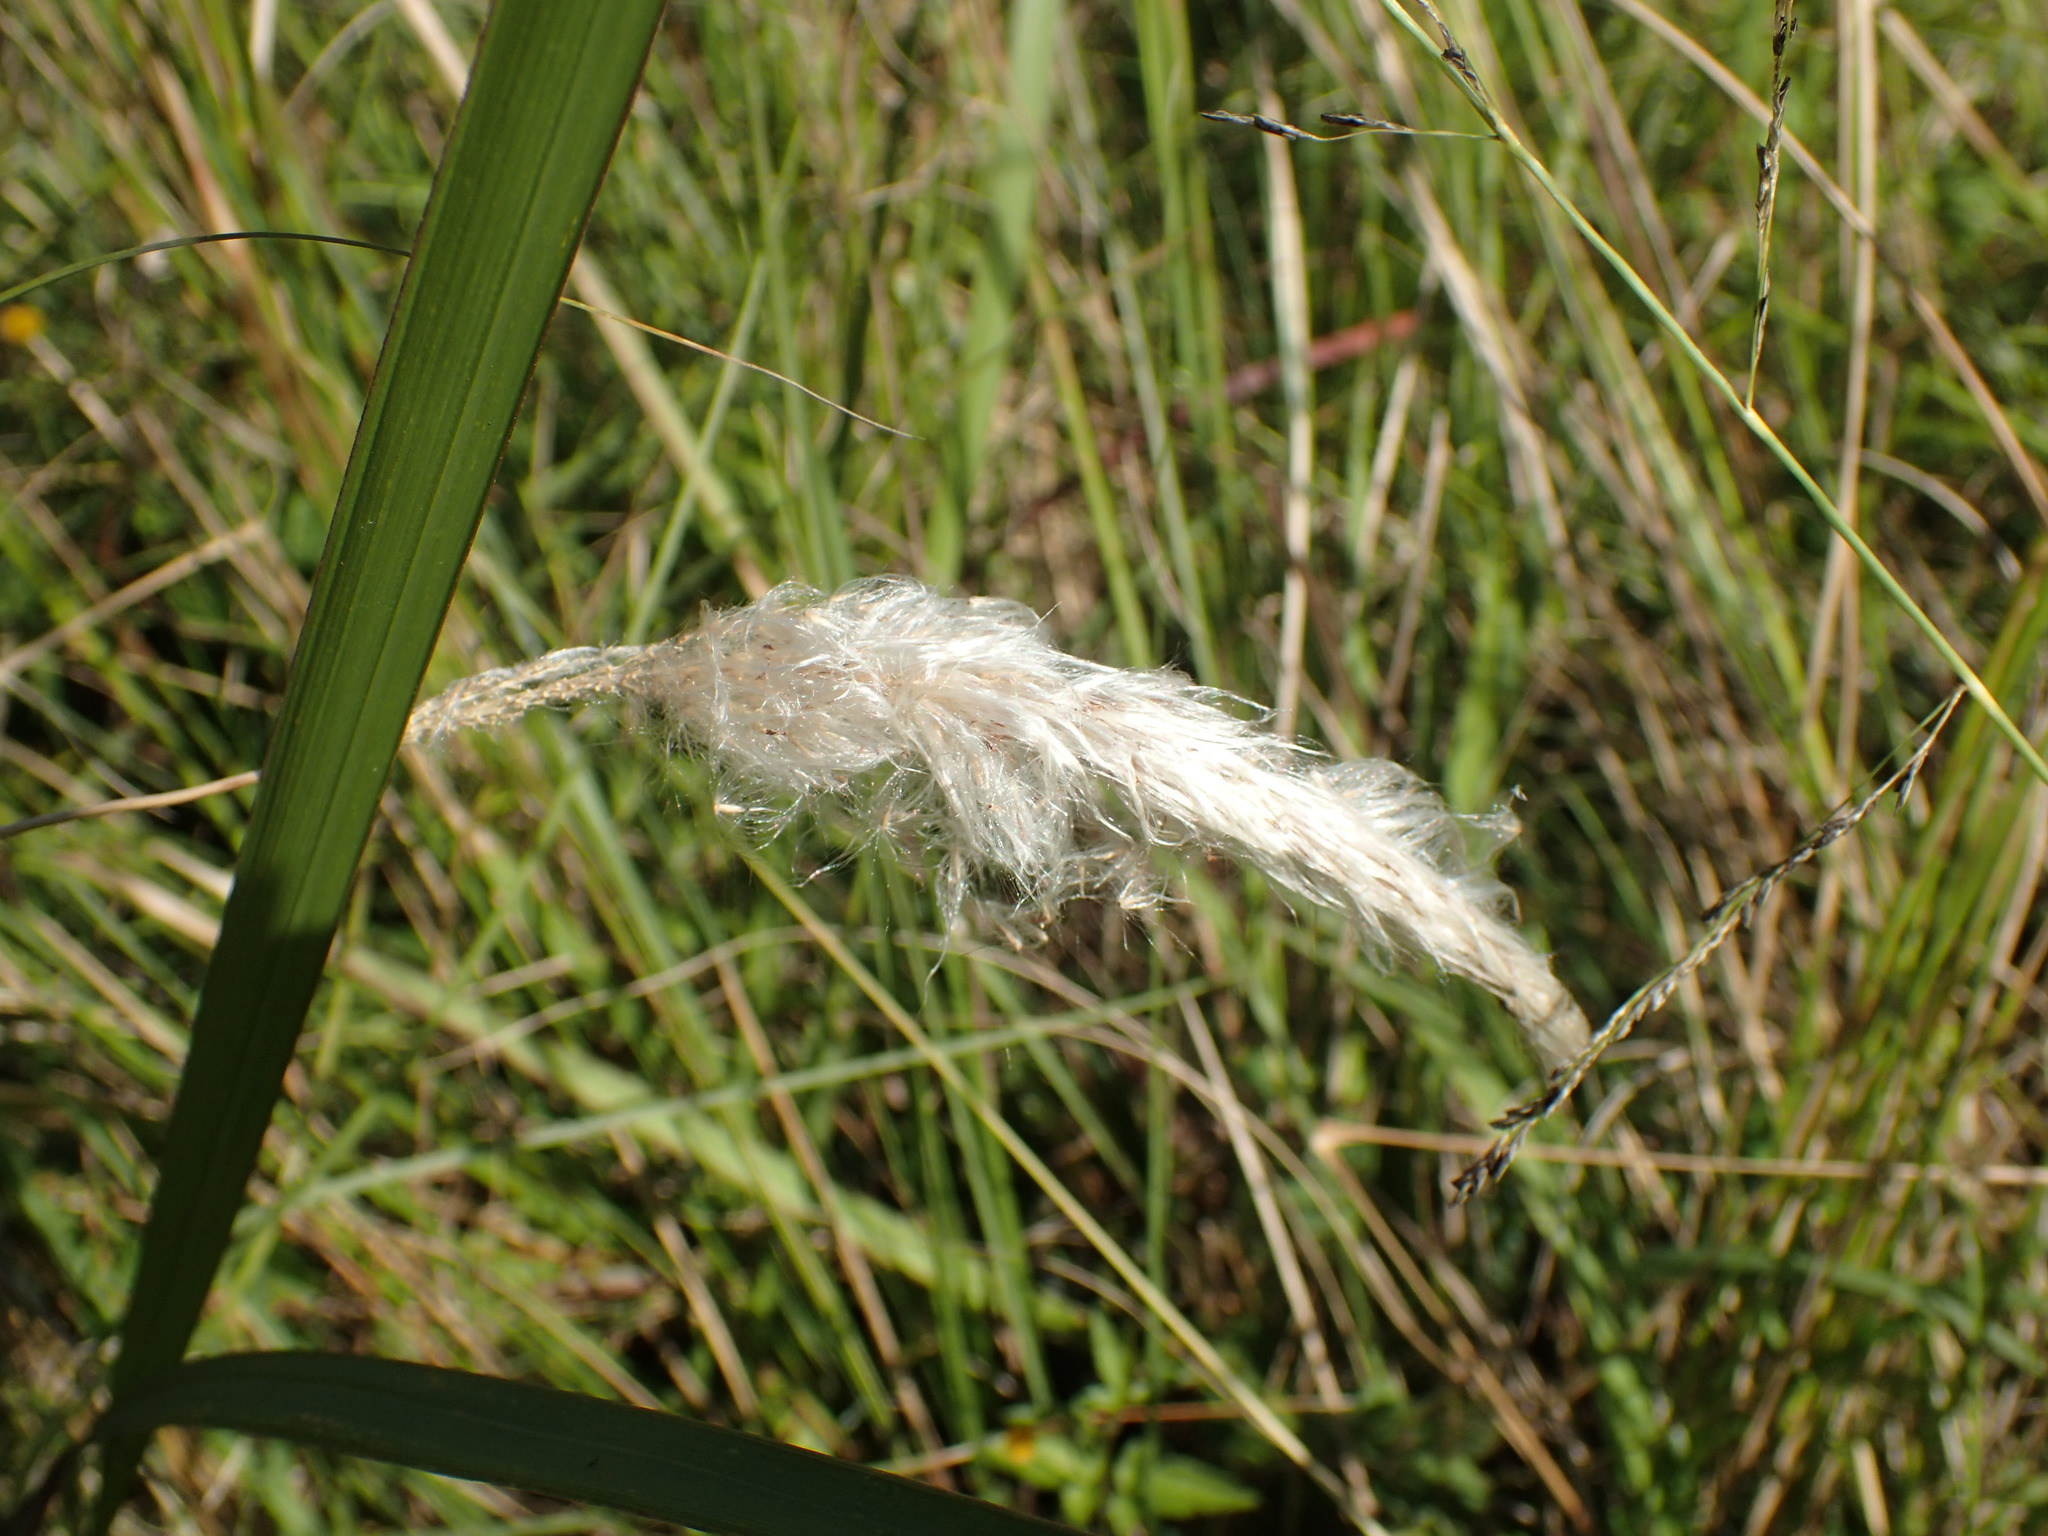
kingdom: Plantae
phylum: Tracheophyta
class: Liliopsida
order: Poales
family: Poaceae
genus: Imperata
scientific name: Imperata cylindrica
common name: Cogongrass
